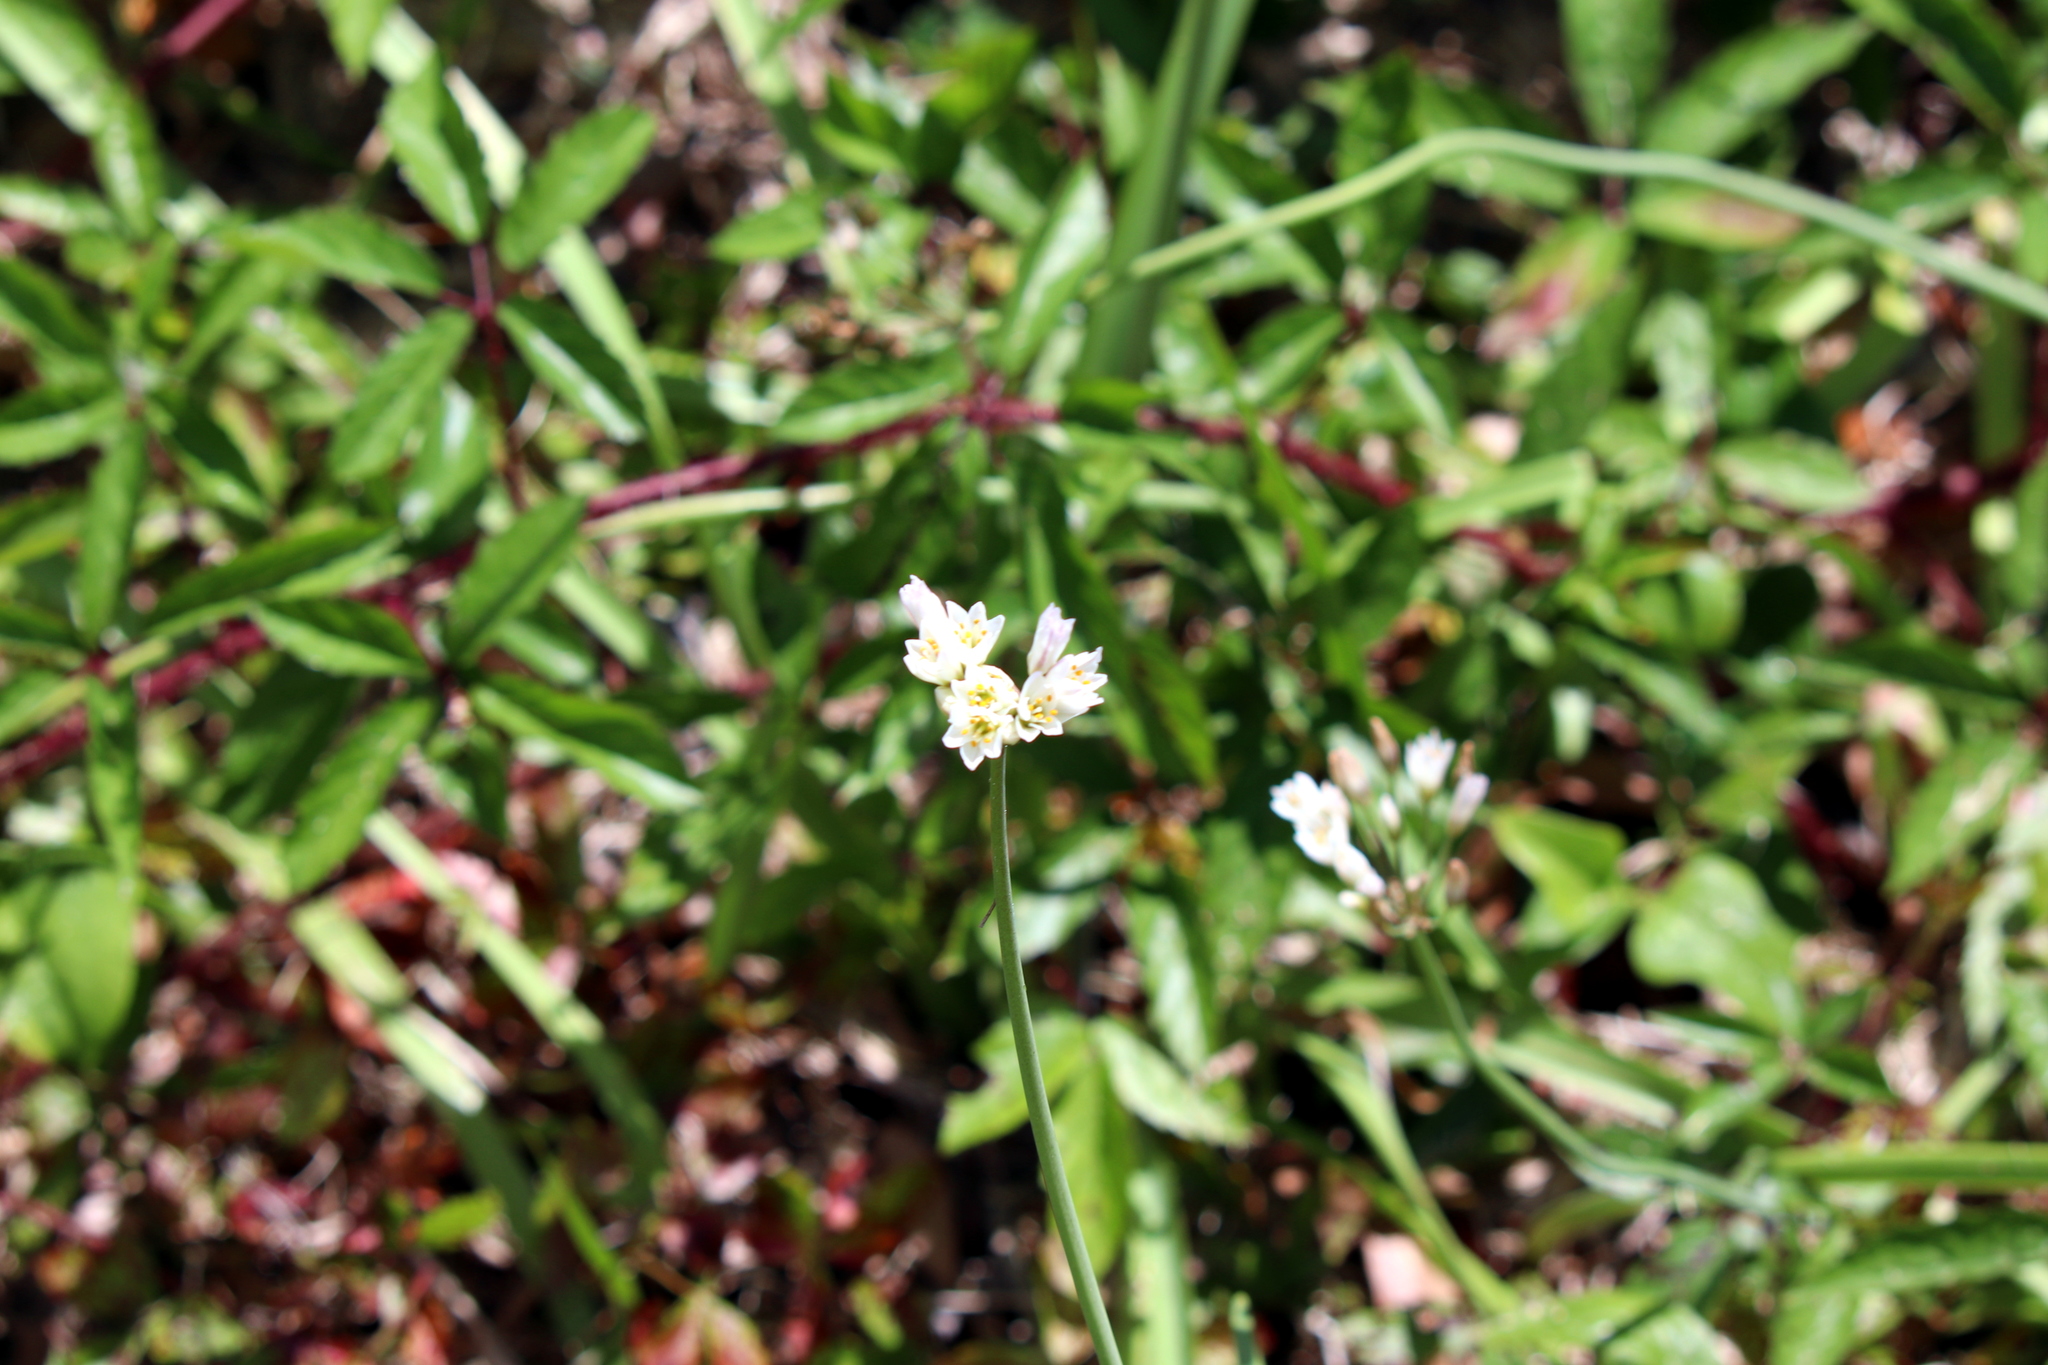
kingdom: Plantae
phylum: Tracheophyta
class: Liliopsida
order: Asparagales
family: Amaryllidaceae
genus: Nothoscordum
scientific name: Nothoscordum gracile
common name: Slender false garlic
